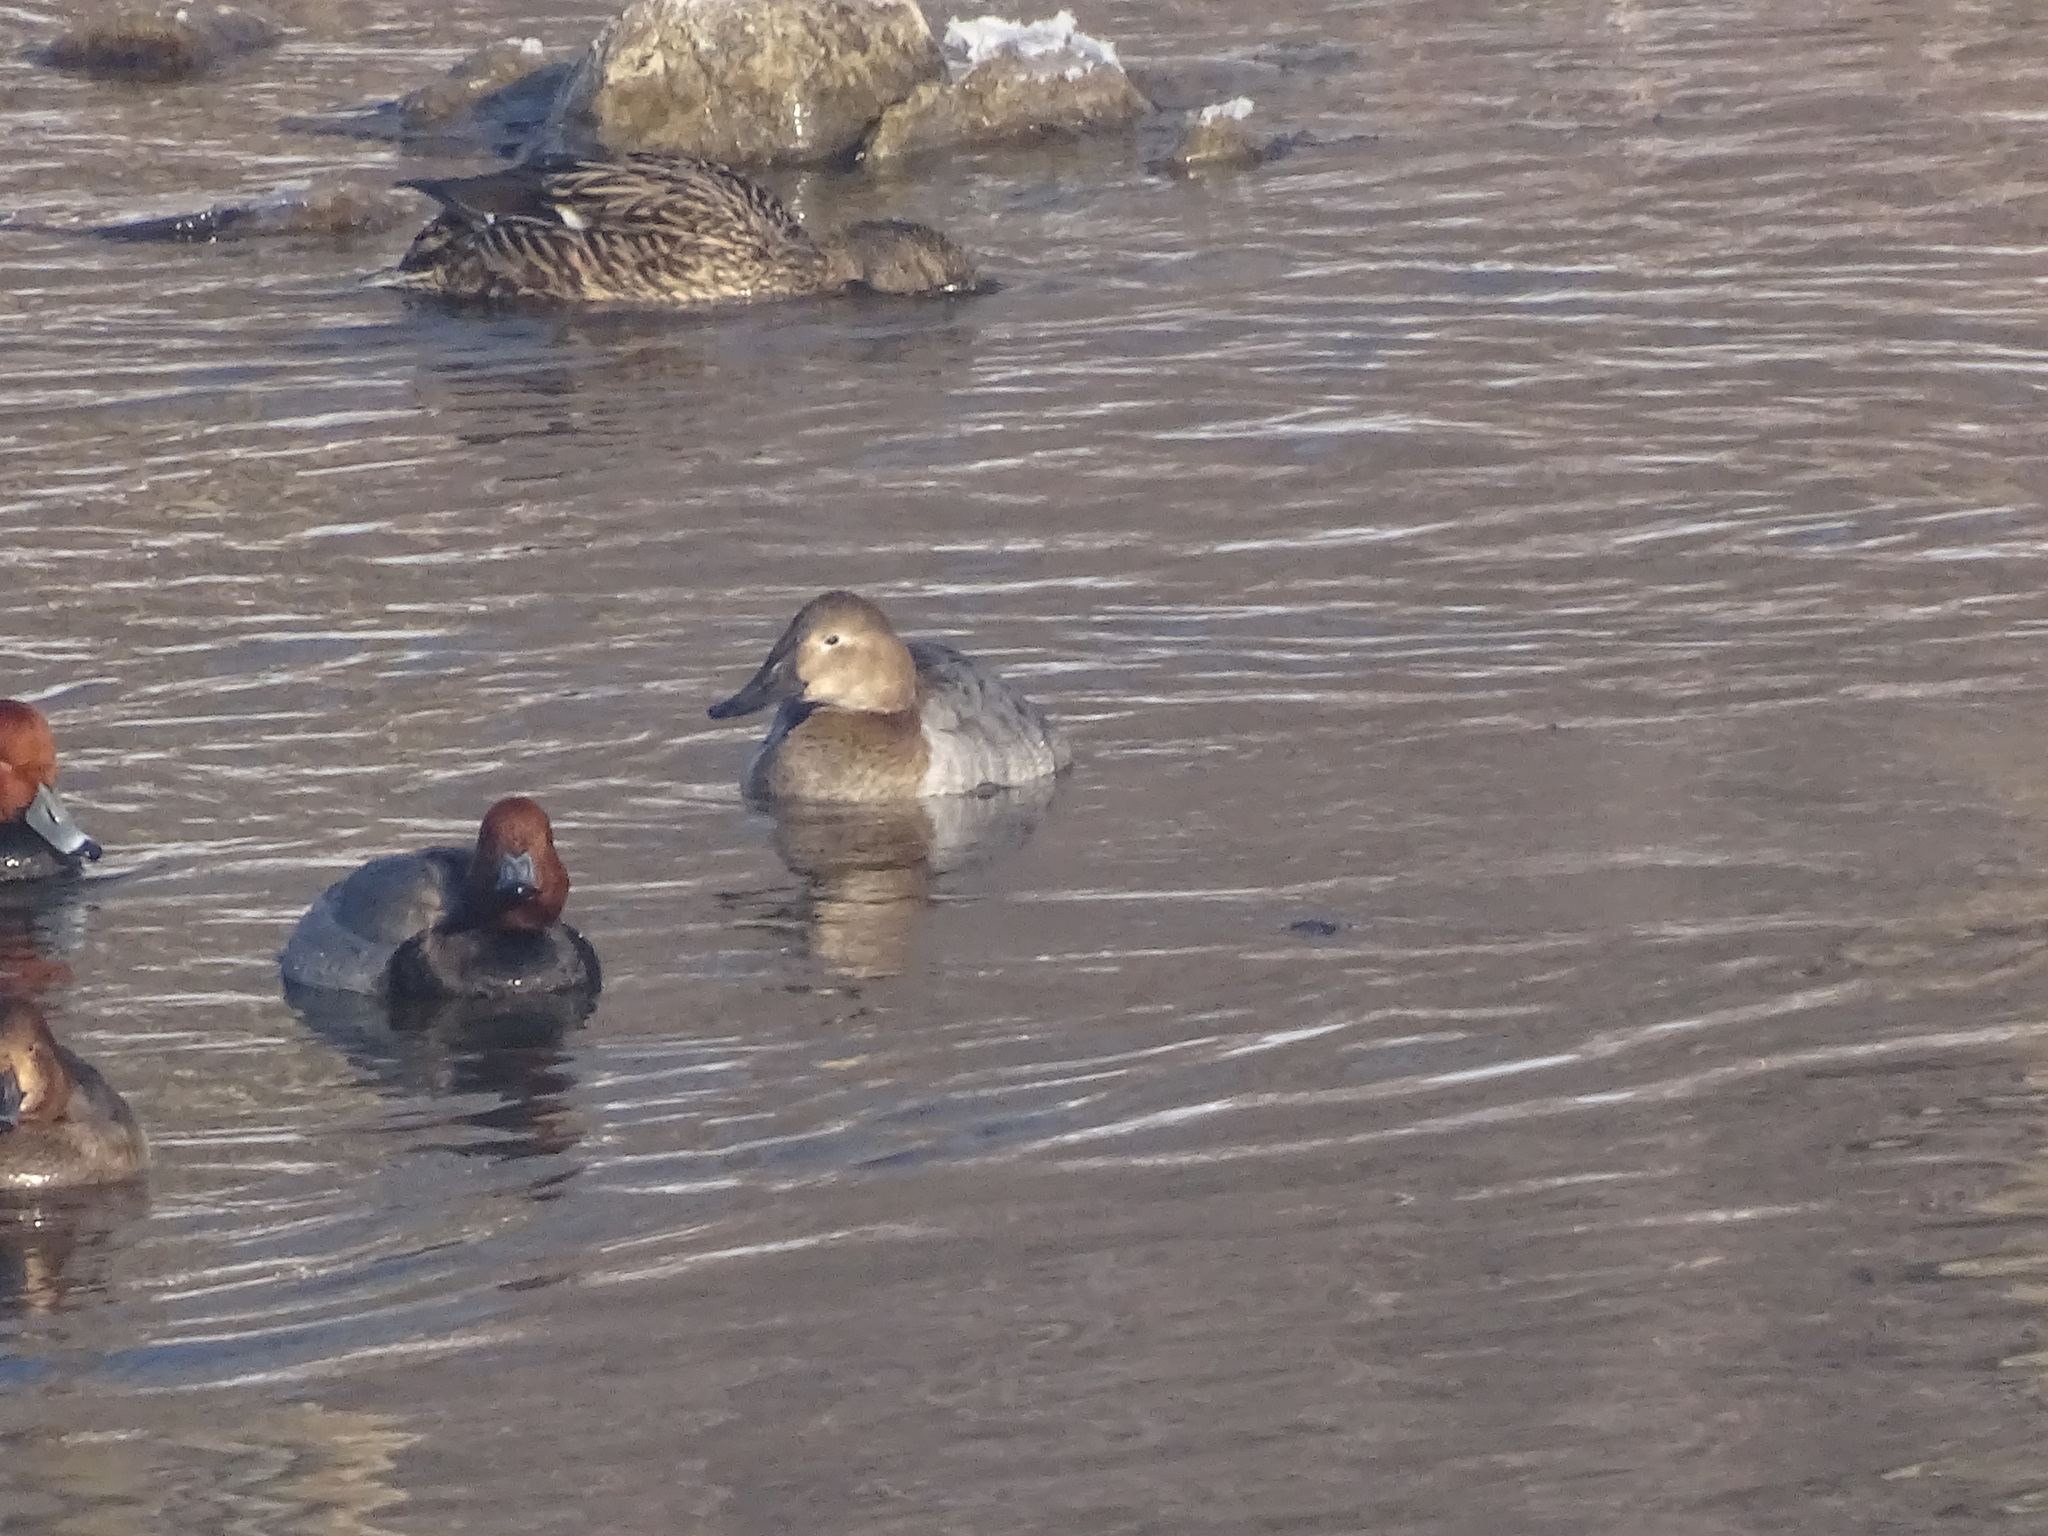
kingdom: Animalia
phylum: Chordata
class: Aves
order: Anseriformes
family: Anatidae
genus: Aythya
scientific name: Aythya valisineria
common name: Canvasback
